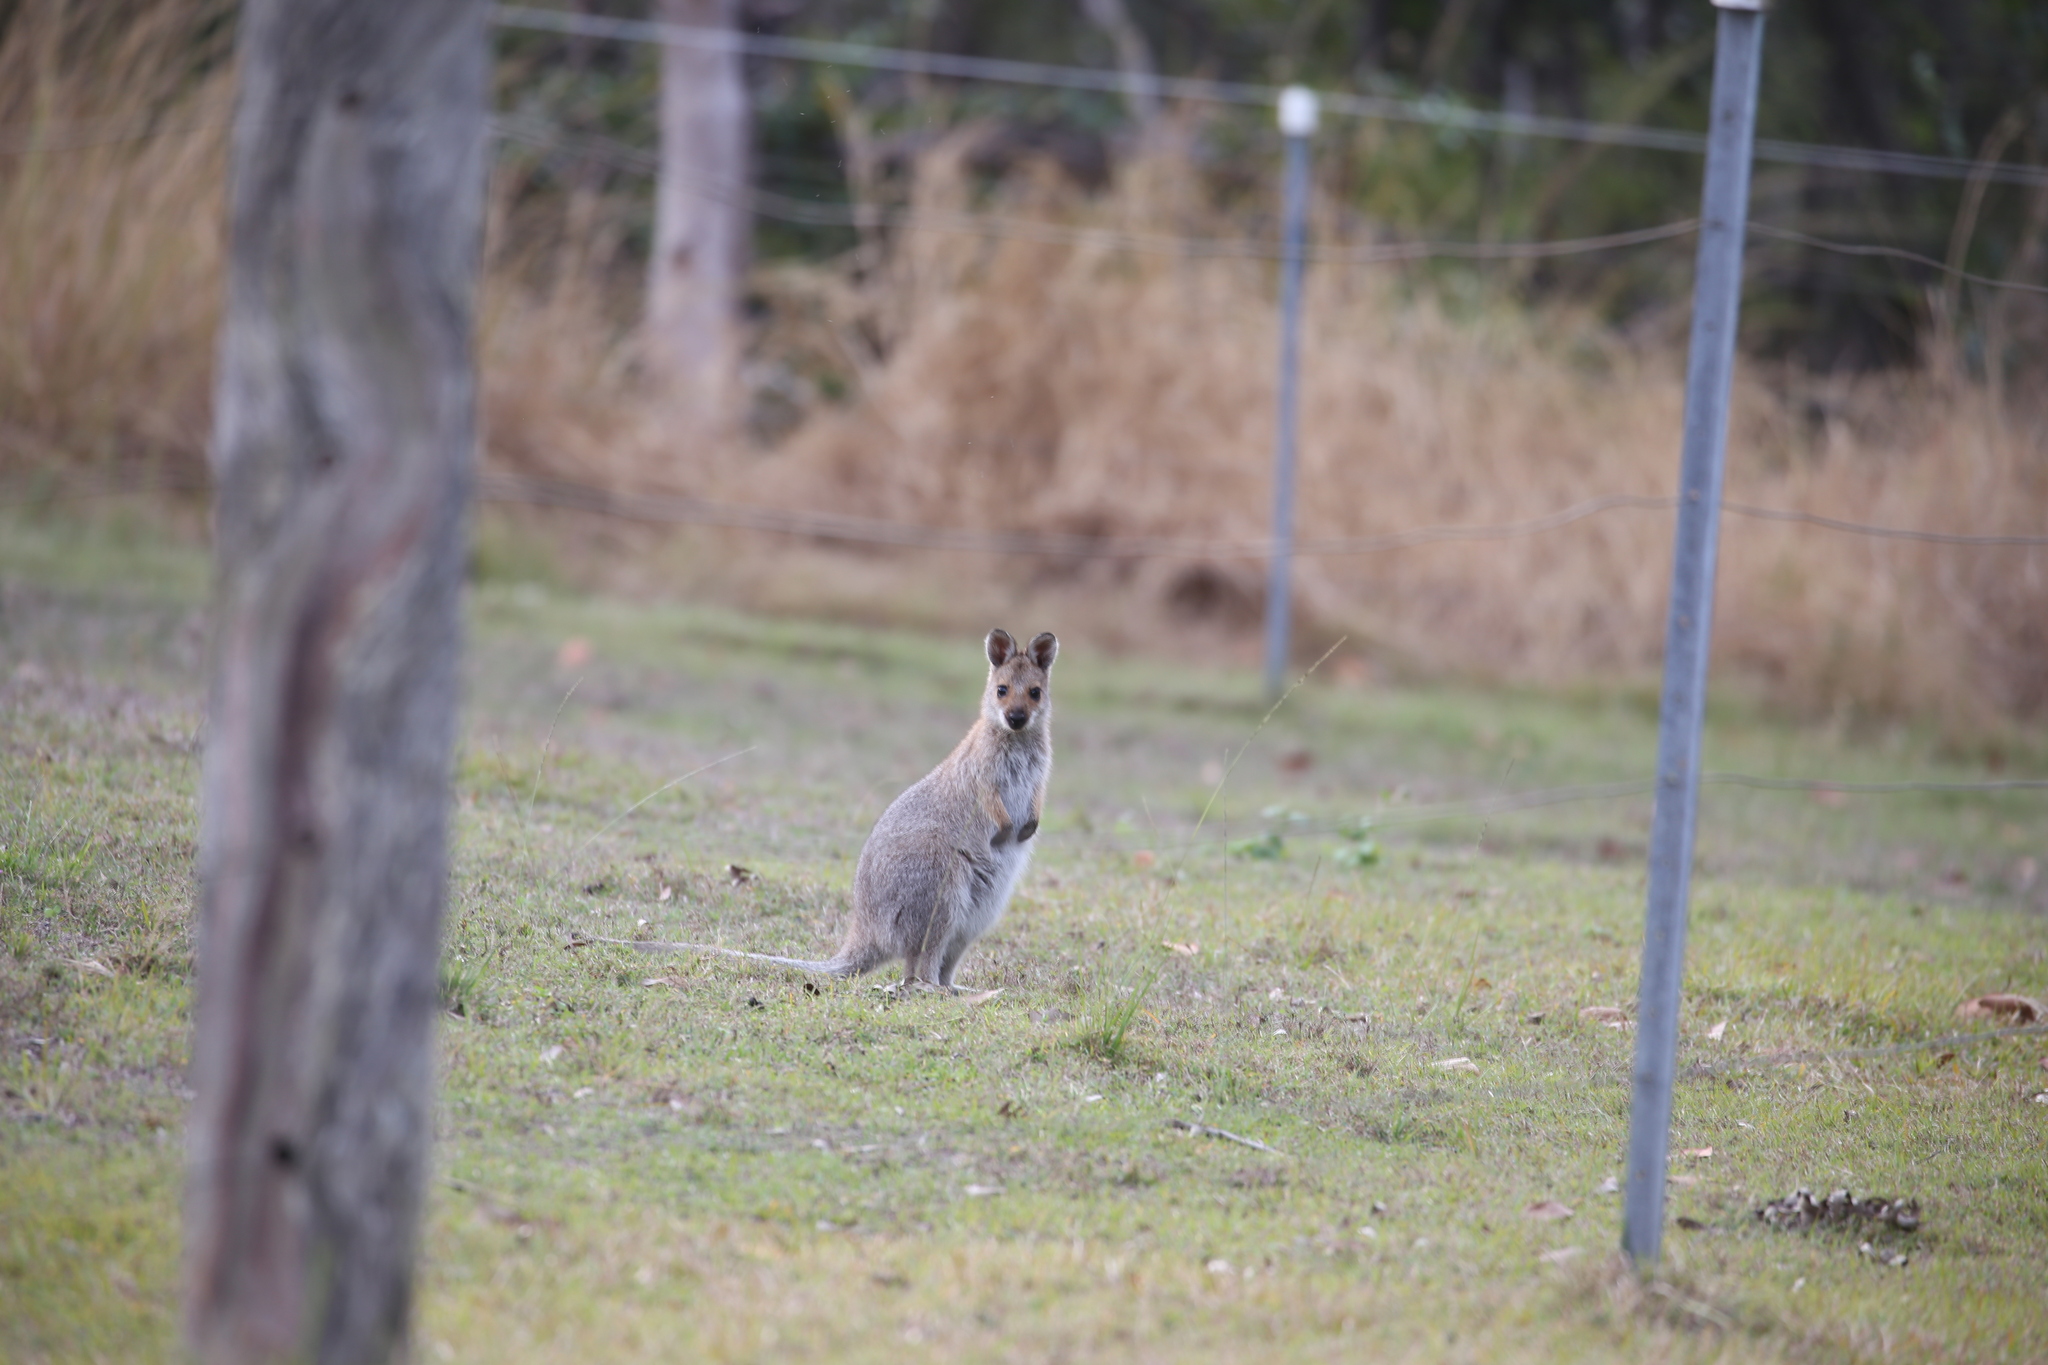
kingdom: Animalia
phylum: Chordata
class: Mammalia
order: Diprotodontia
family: Macropodidae
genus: Notamacropus
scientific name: Notamacropus rufogriseus
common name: Red-necked wallaby
